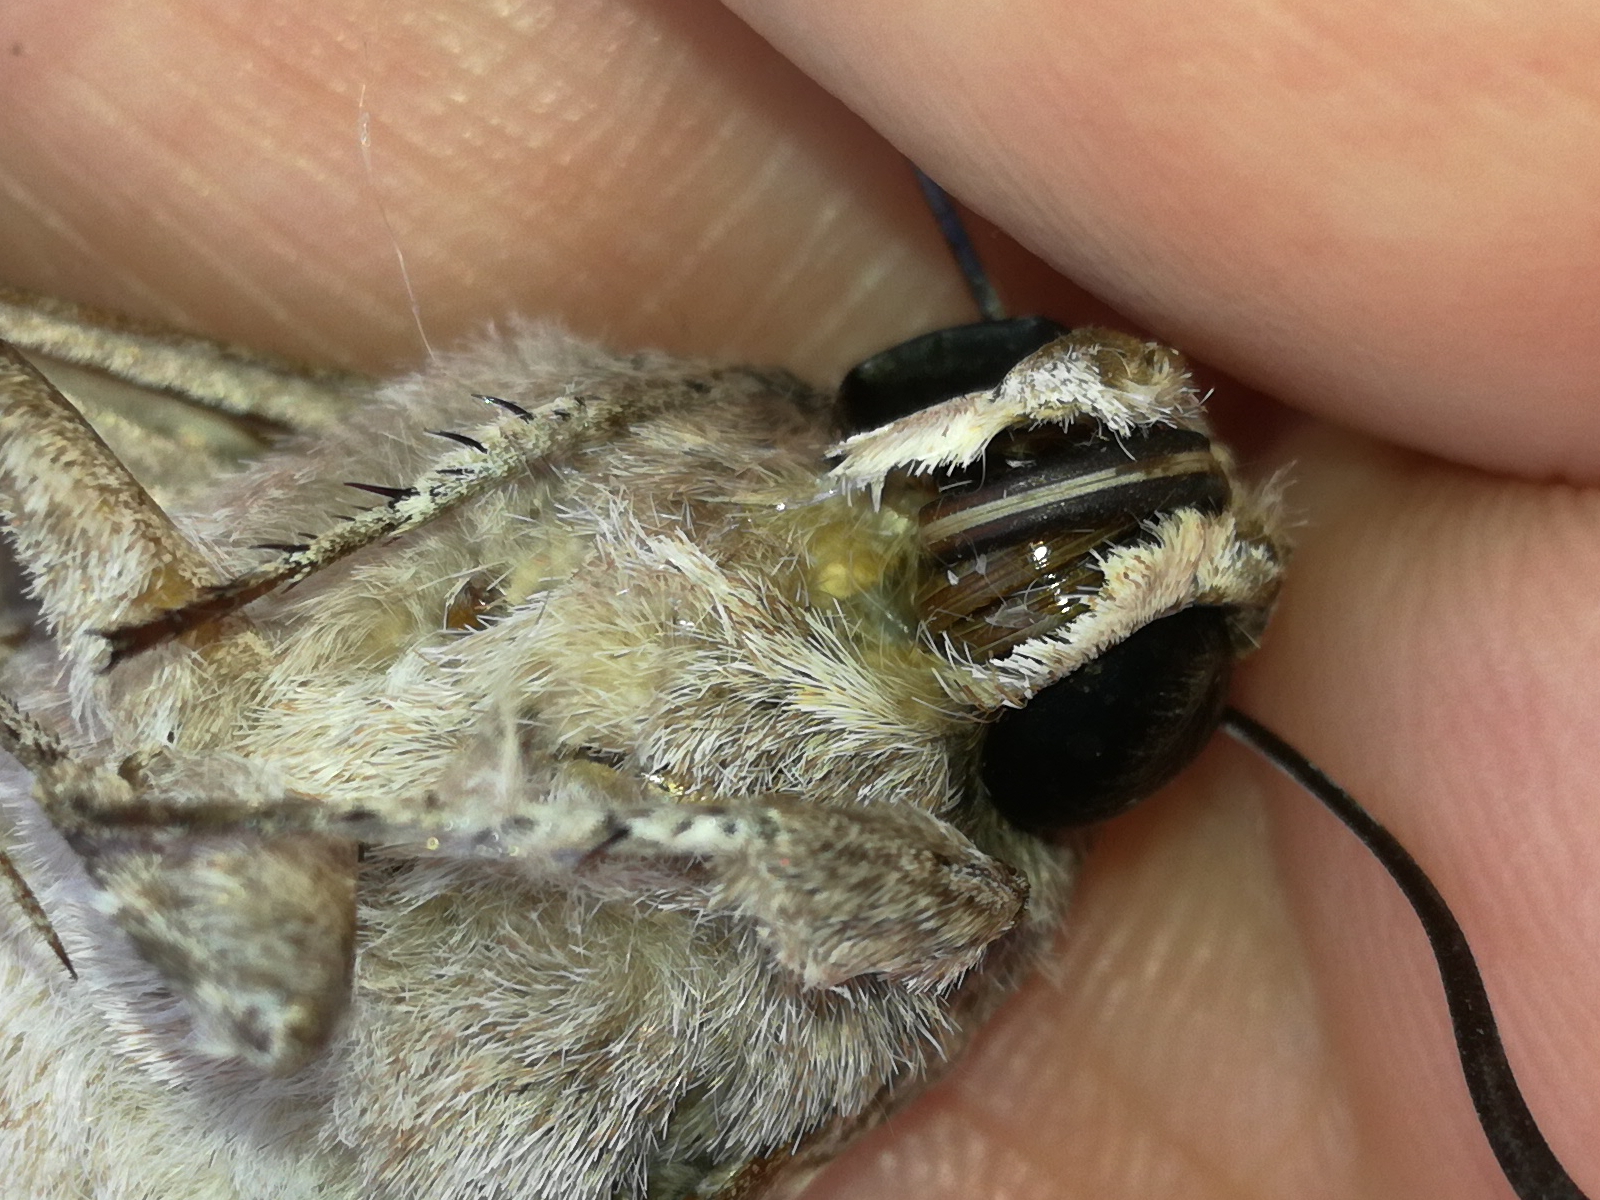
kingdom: Animalia
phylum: Arthropoda
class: Insecta
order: Lepidoptera
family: Sphingidae
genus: Agrius
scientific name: Agrius convolvuli
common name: Convolvulus hawkmoth
